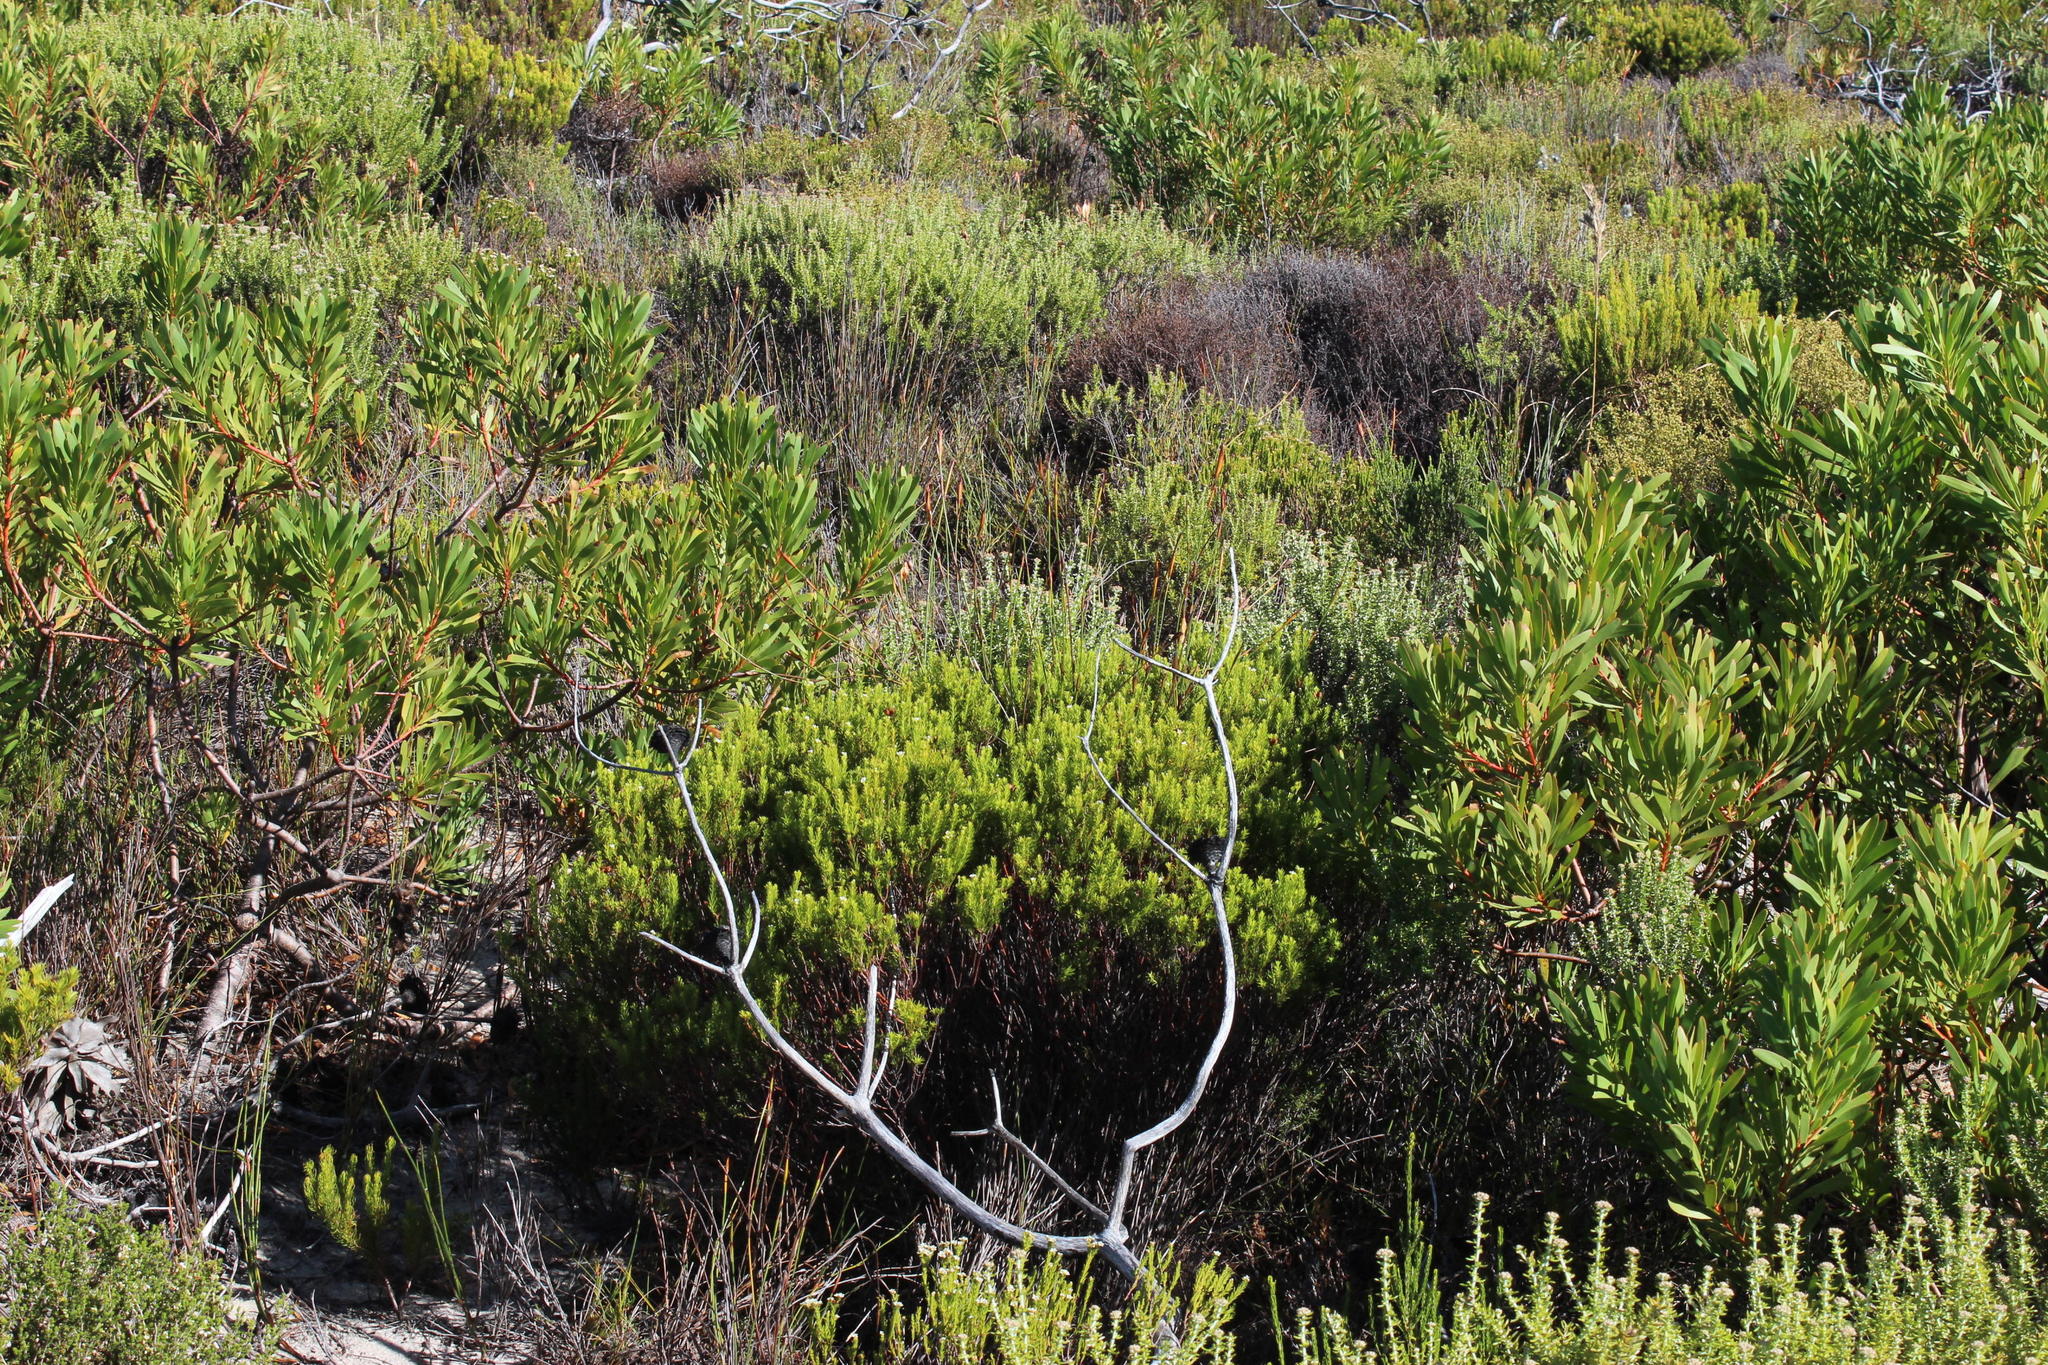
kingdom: Plantae
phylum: Tracheophyta
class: Magnoliopsida
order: Proteales
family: Proteaceae
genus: Protea
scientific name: Protea repens
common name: Sugarbush
